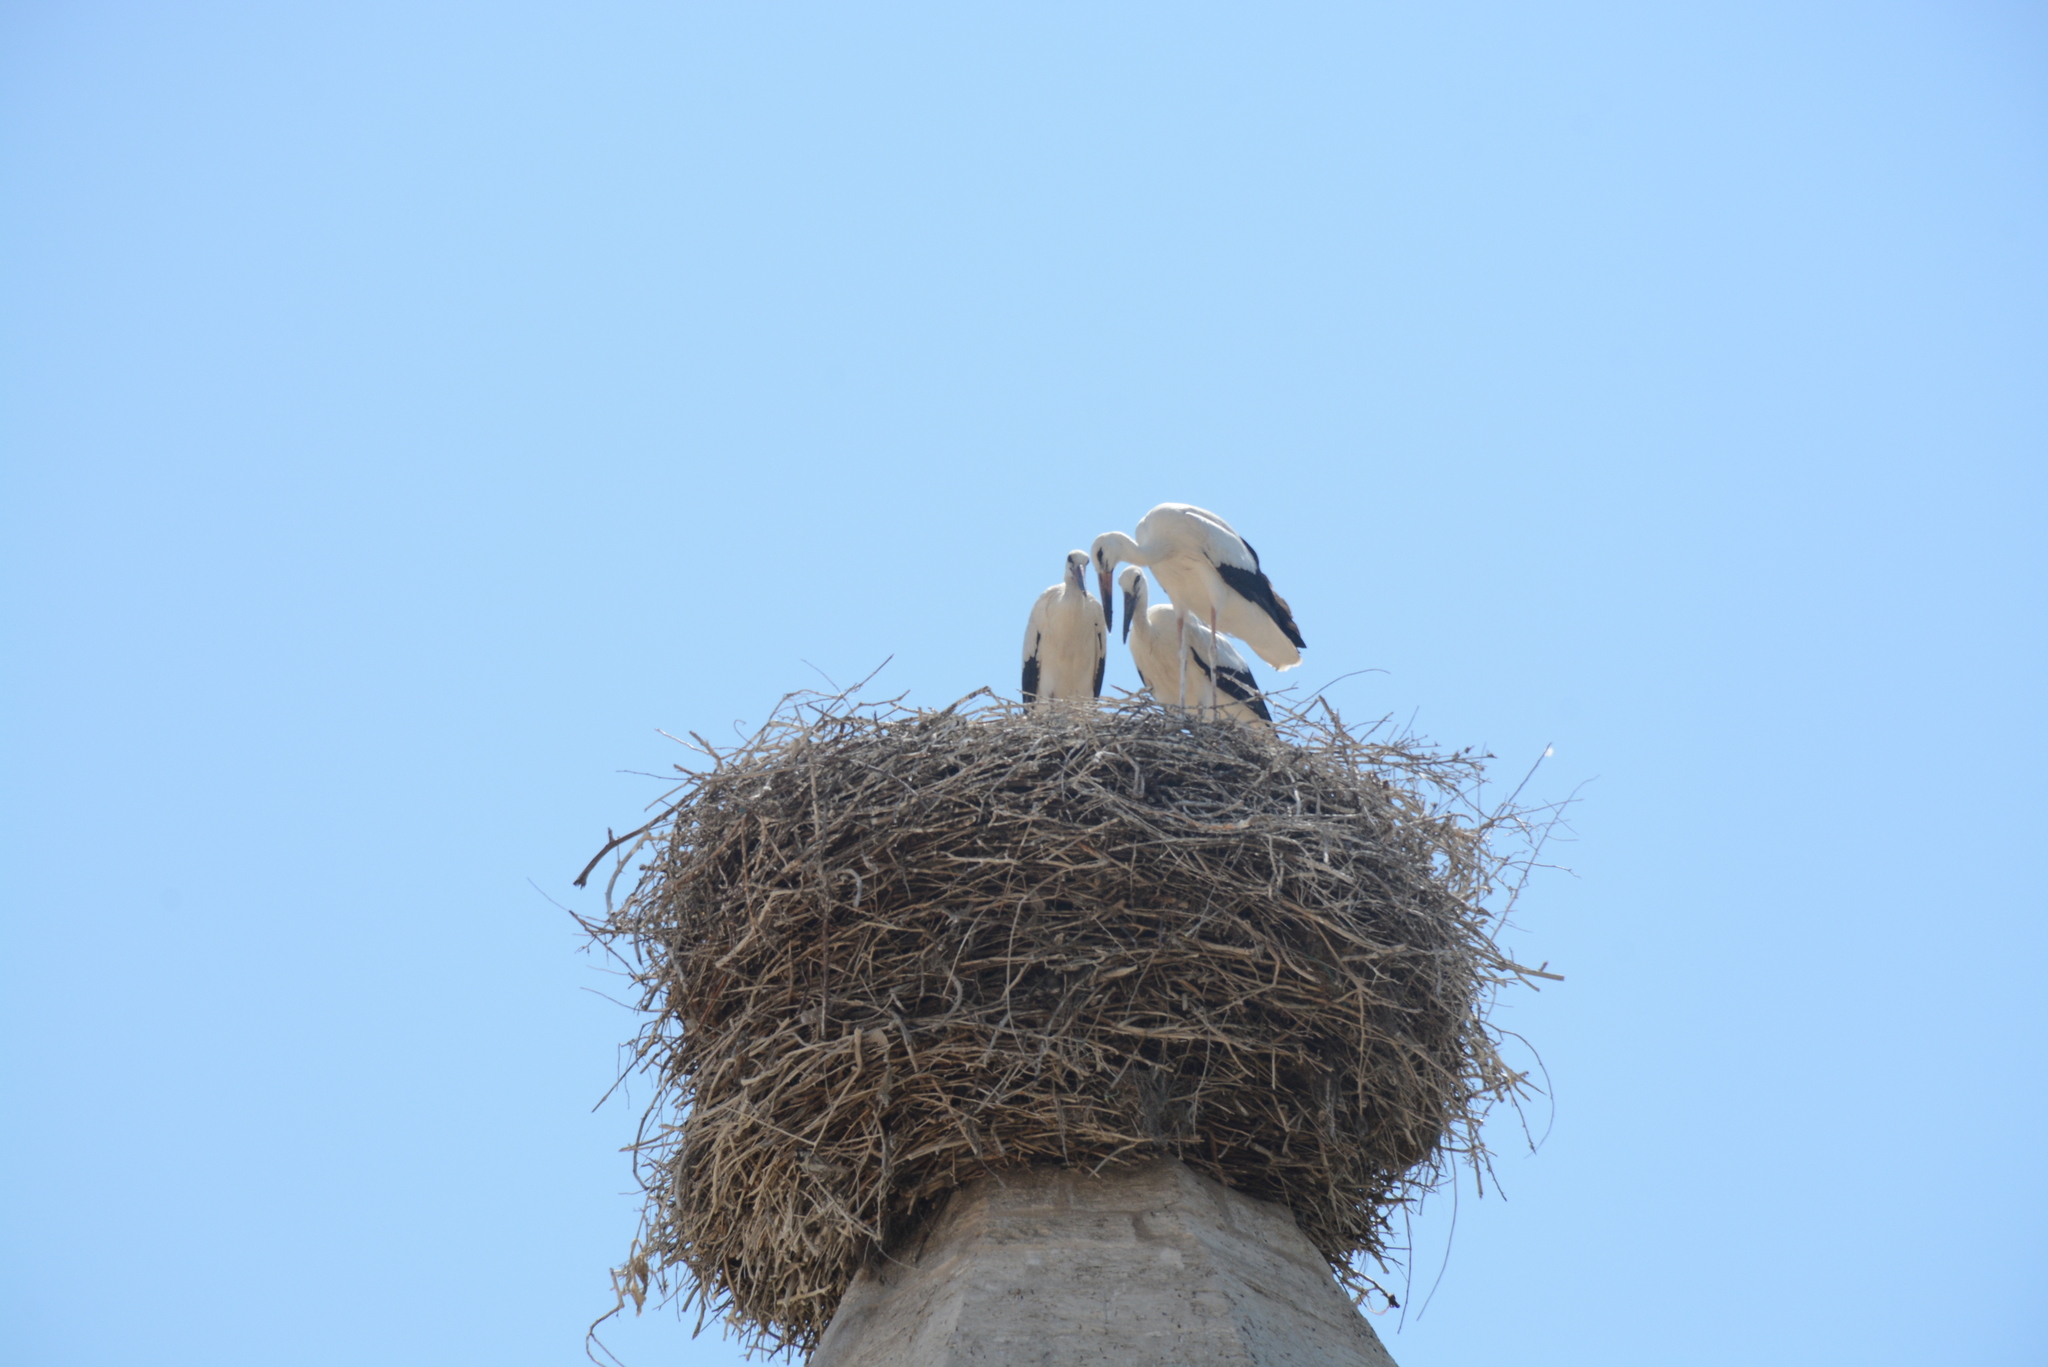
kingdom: Animalia
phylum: Chordata
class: Aves
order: Ciconiiformes
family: Ciconiidae
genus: Ciconia
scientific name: Ciconia ciconia
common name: White stork
